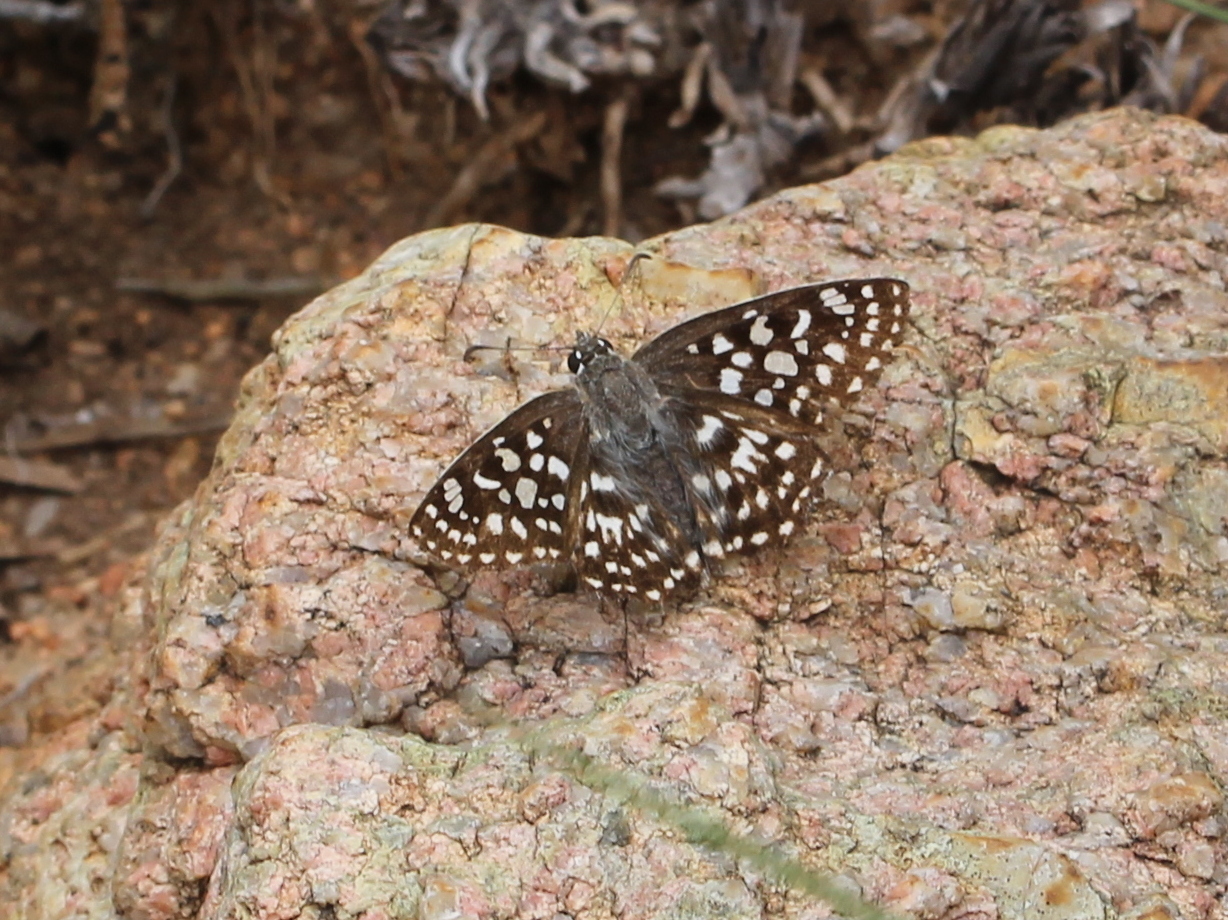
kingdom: Animalia
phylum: Arthropoda
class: Insecta
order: Lepidoptera
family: Hesperiidae
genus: Caprona
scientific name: Caprona agama
